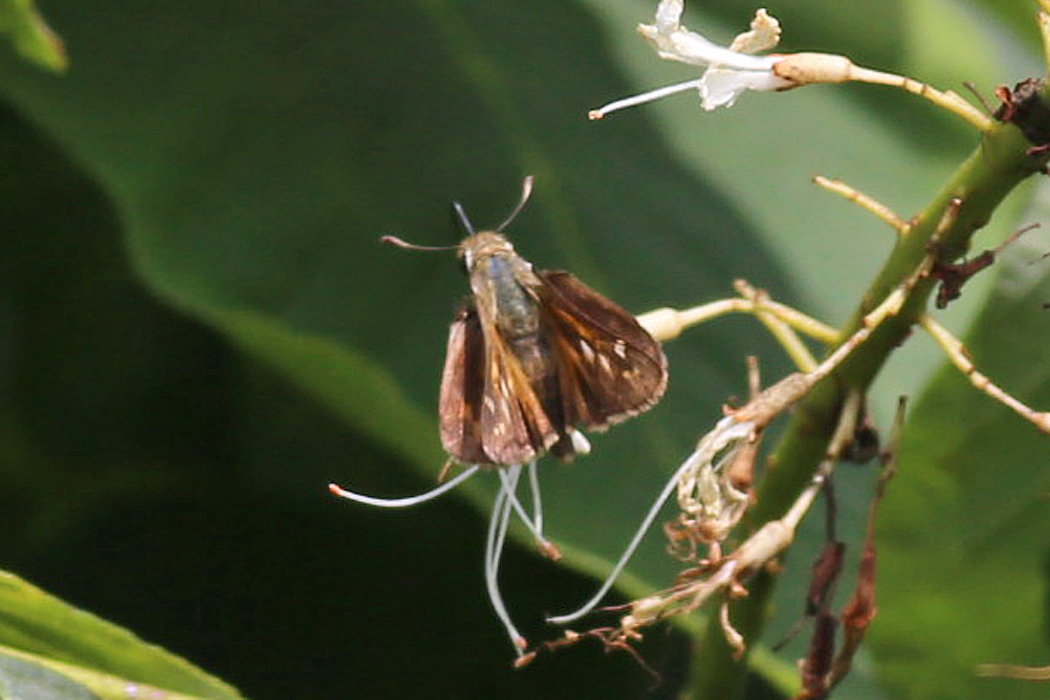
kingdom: Animalia
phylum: Arthropoda
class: Insecta
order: Lepidoptera
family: Hesperiidae
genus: Atalopedes
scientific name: Atalopedes
